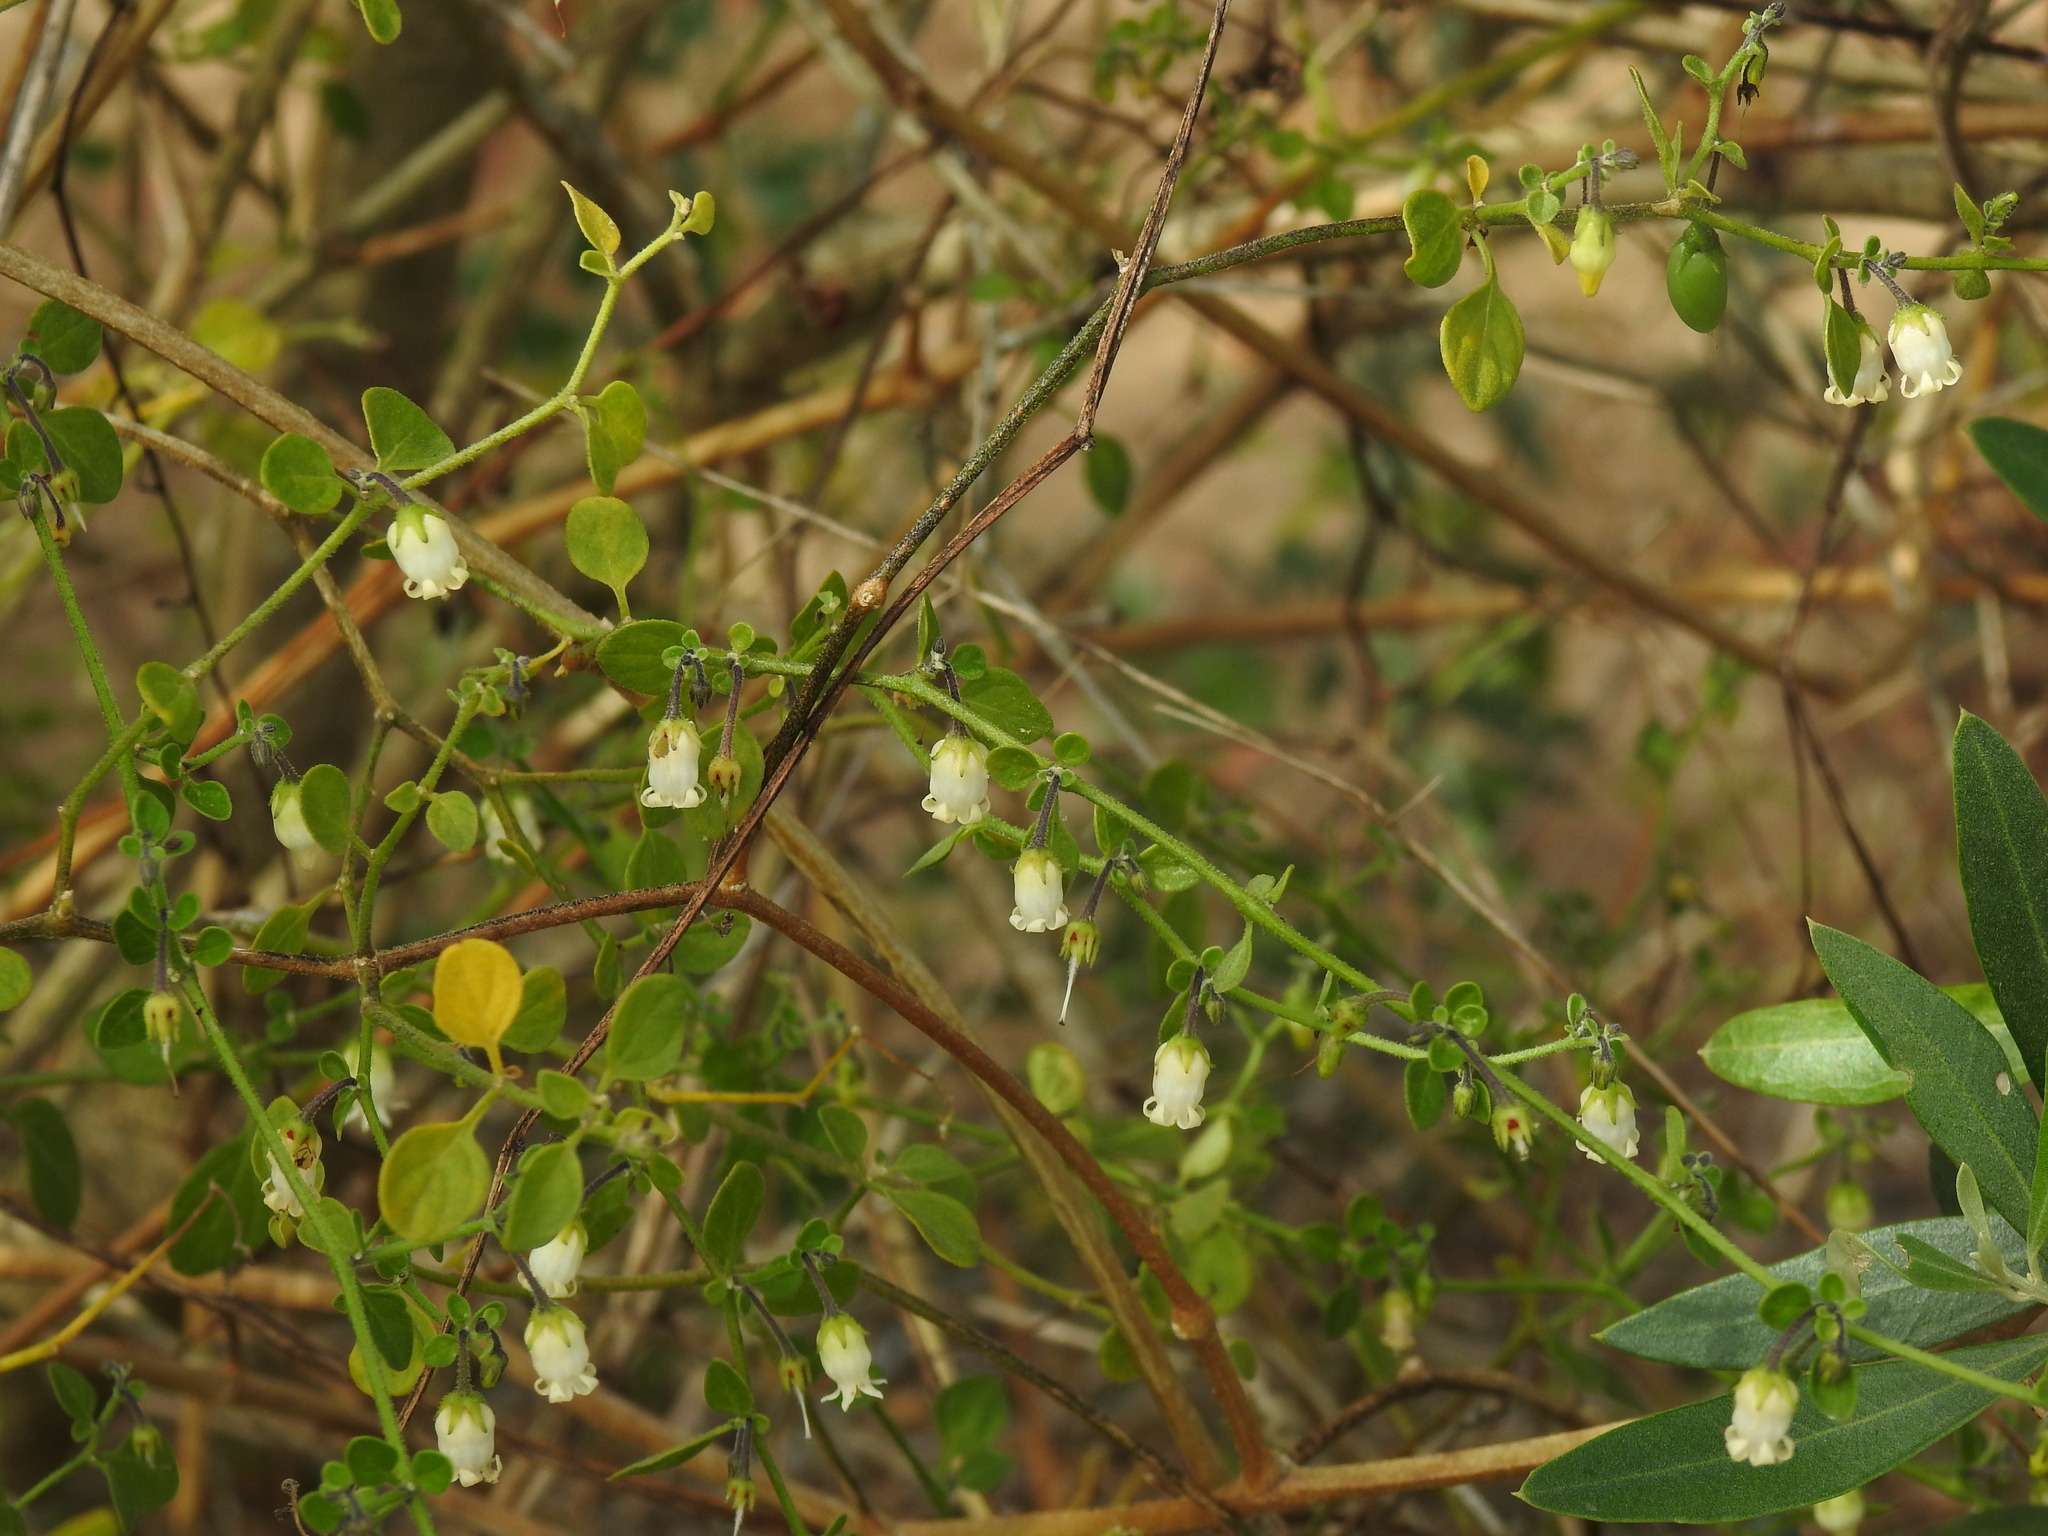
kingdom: Plantae
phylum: Tracheophyta
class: Magnoliopsida
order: Solanales
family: Solanaceae
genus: Salpichroa
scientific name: Salpichroa origanifolia
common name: Lily-of-the-valley-vine
